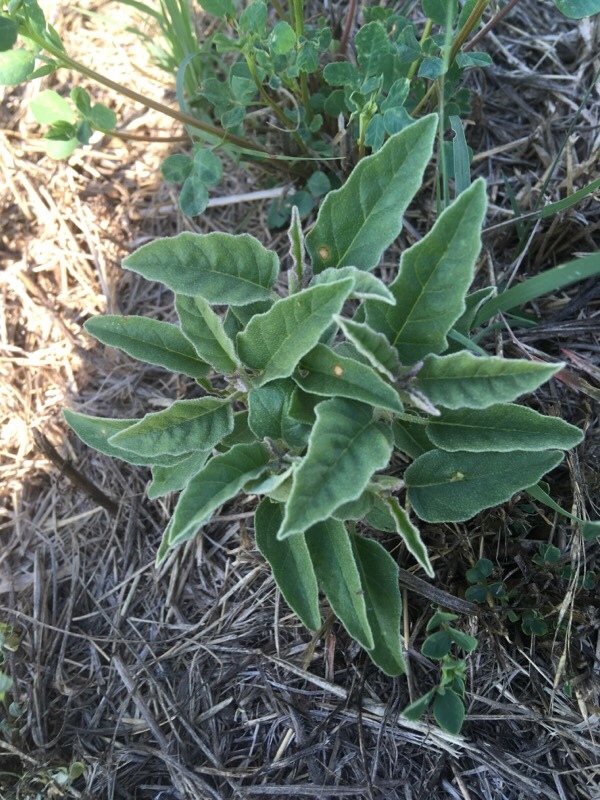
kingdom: Plantae
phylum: Tracheophyta
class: Magnoliopsida
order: Solanales
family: Solanaceae
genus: Solanum
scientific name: Solanum elaeagnifolium
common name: Silverleaf nightshade
